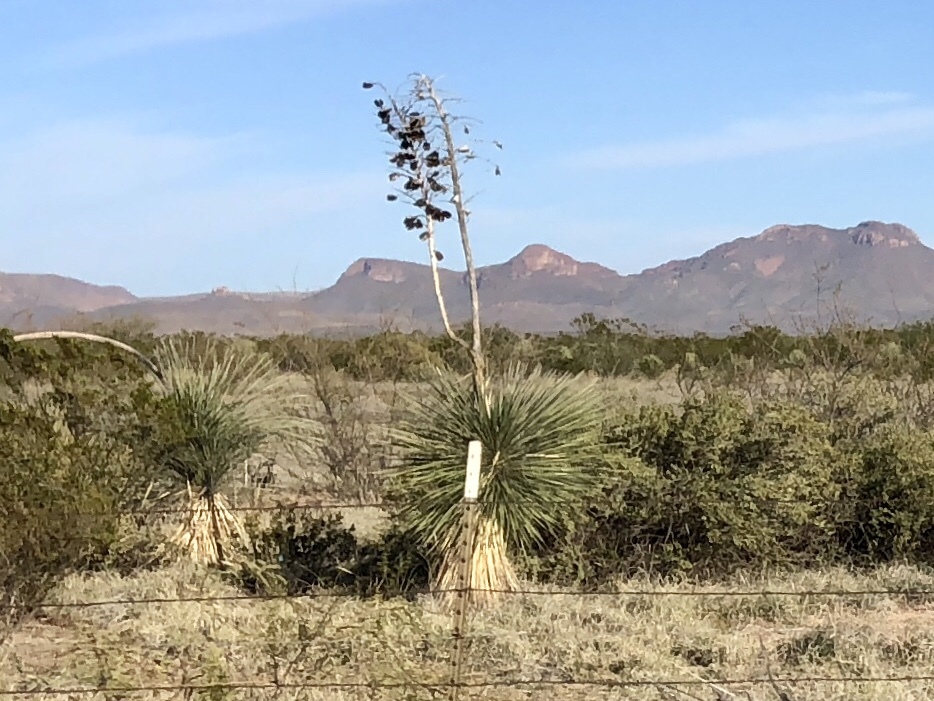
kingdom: Plantae
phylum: Tracheophyta
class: Liliopsida
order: Asparagales
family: Asparagaceae
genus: Yucca
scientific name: Yucca elata
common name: Palmella
